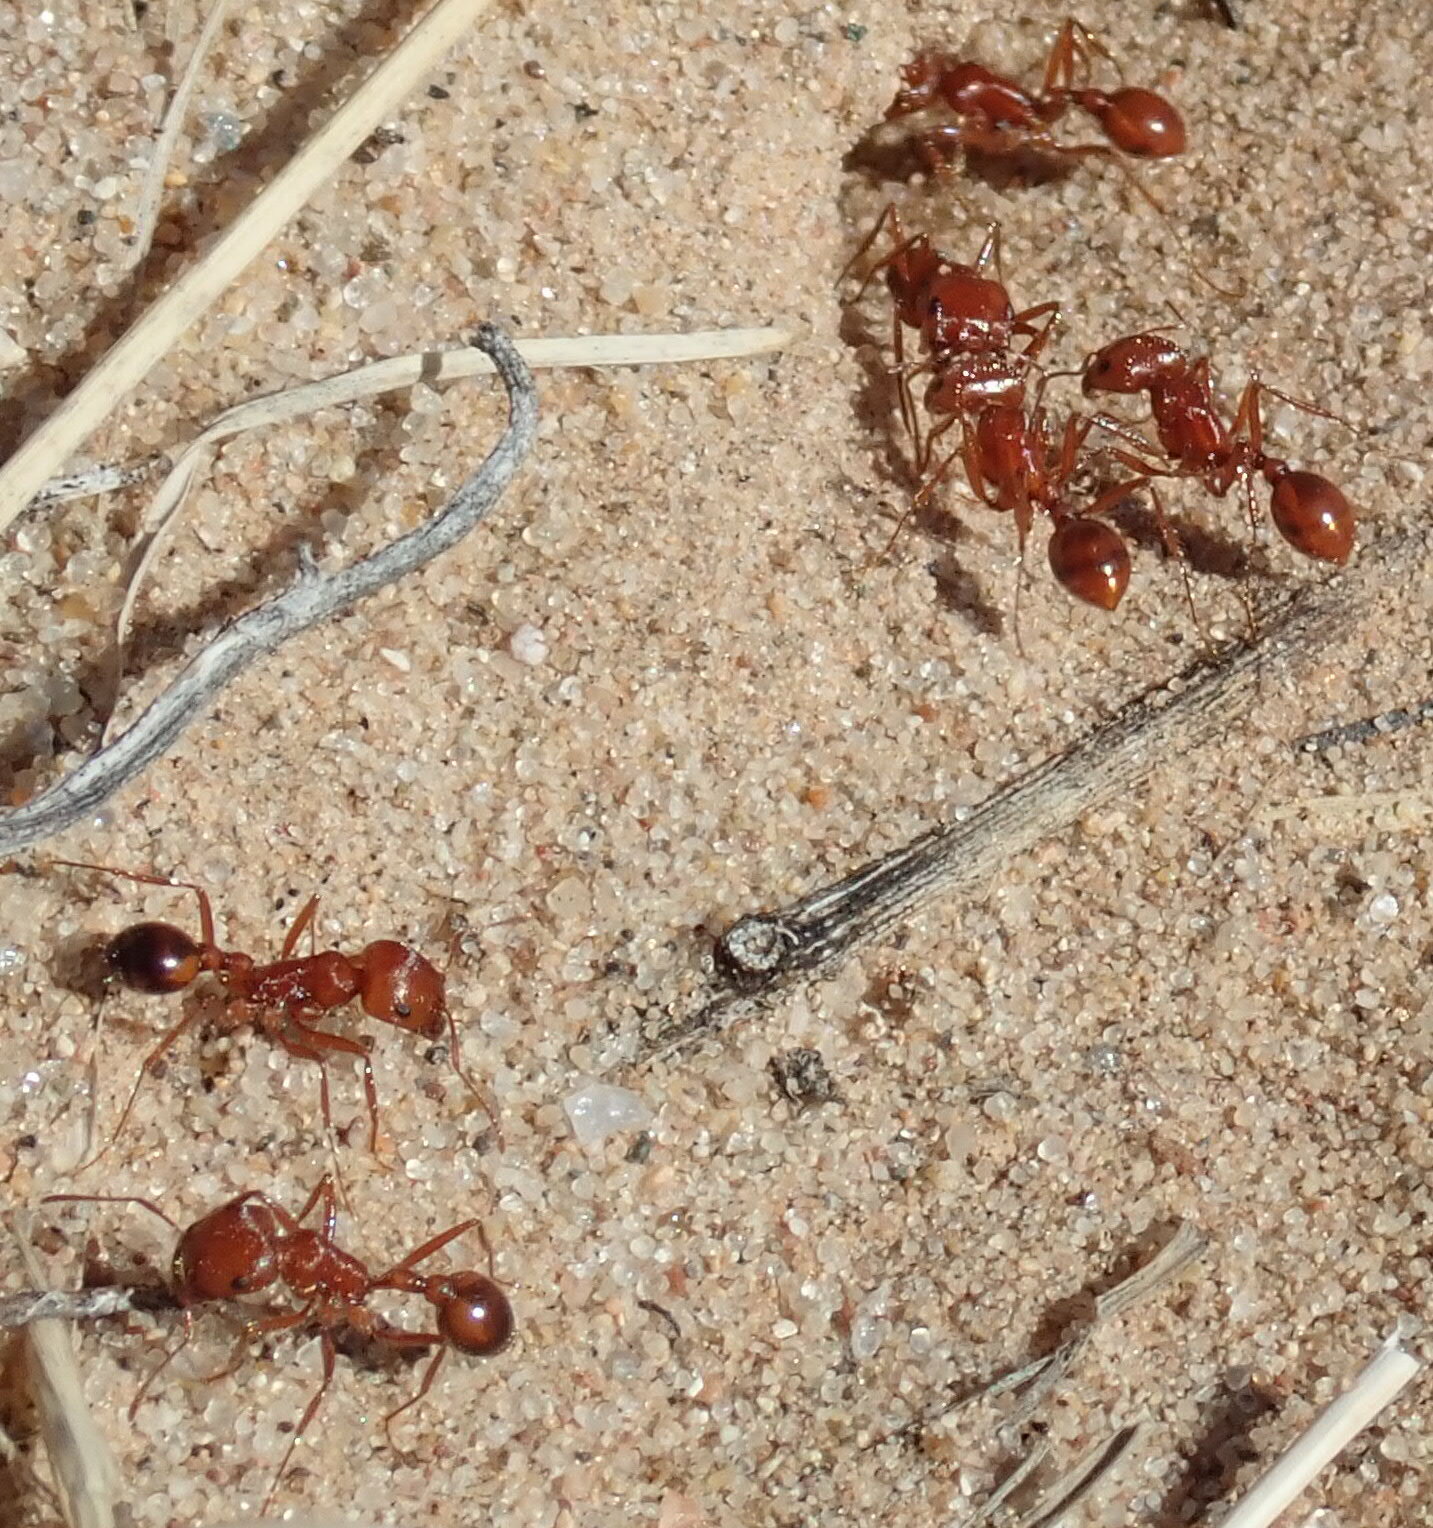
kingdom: Animalia
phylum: Arthropoda
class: Insecta
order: Hymenoptera
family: Formicidae
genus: Pogonomyrmex
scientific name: Pogonomyrmex californicus
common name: California harvester ant
